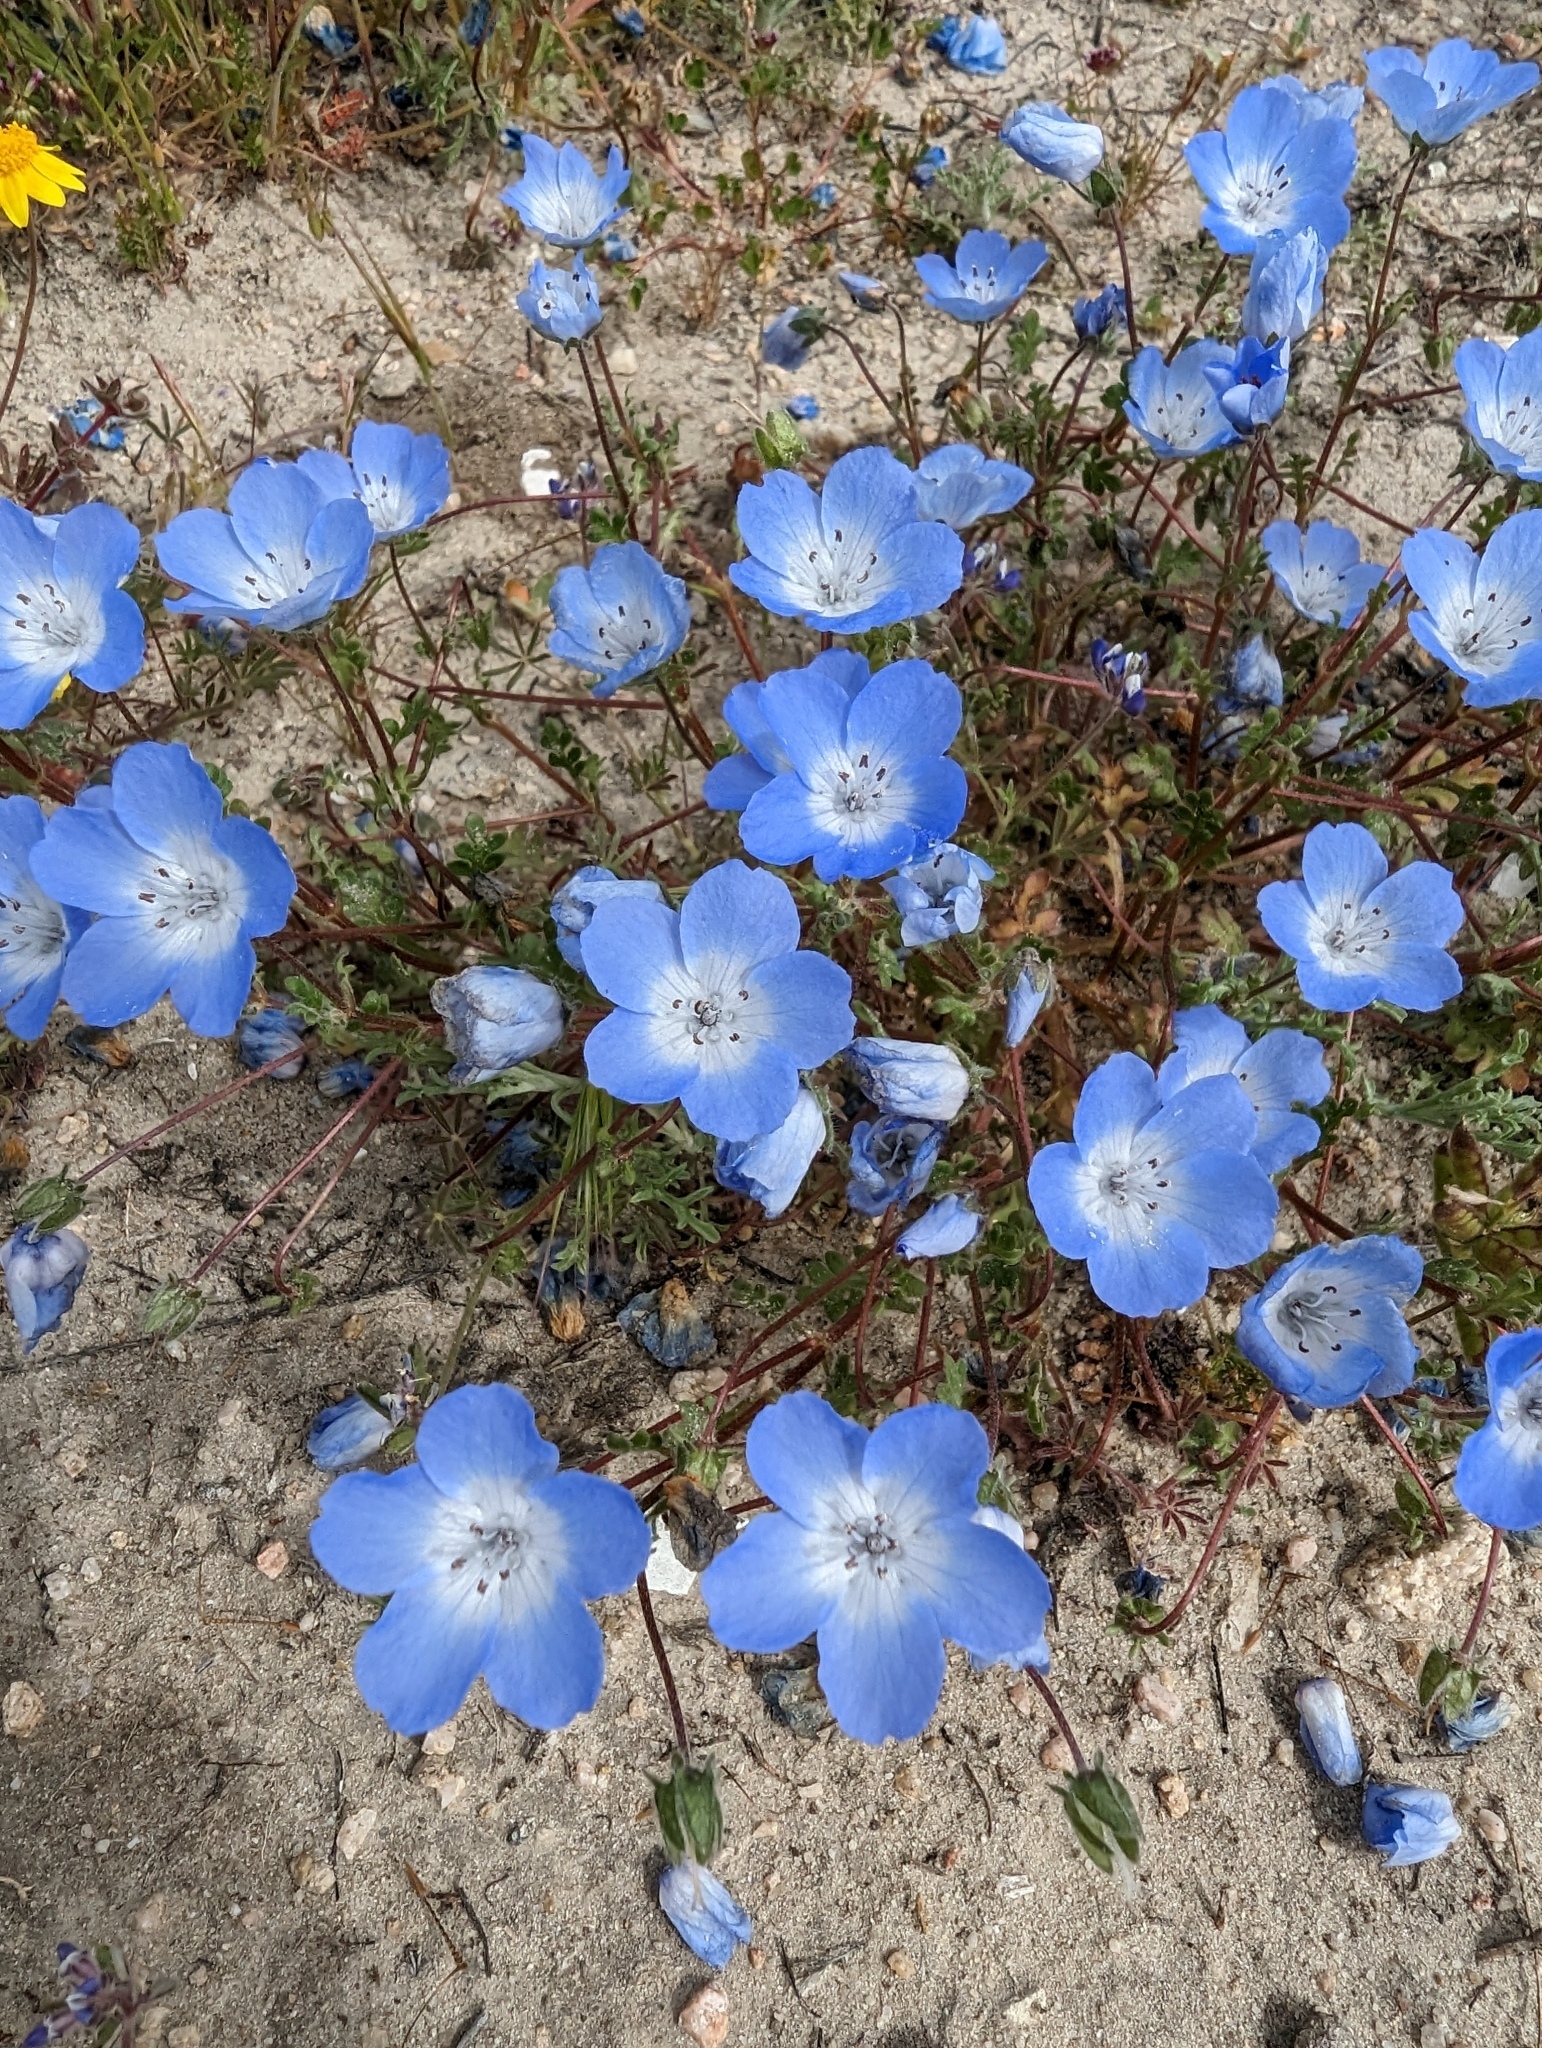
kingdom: Plantae
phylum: Tracheophyta
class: Magnoliopsida
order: Boraginales
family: Hydrophyllaceae
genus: Nemophila
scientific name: Nemophila menziesii
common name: Baby's-blue-eyes
